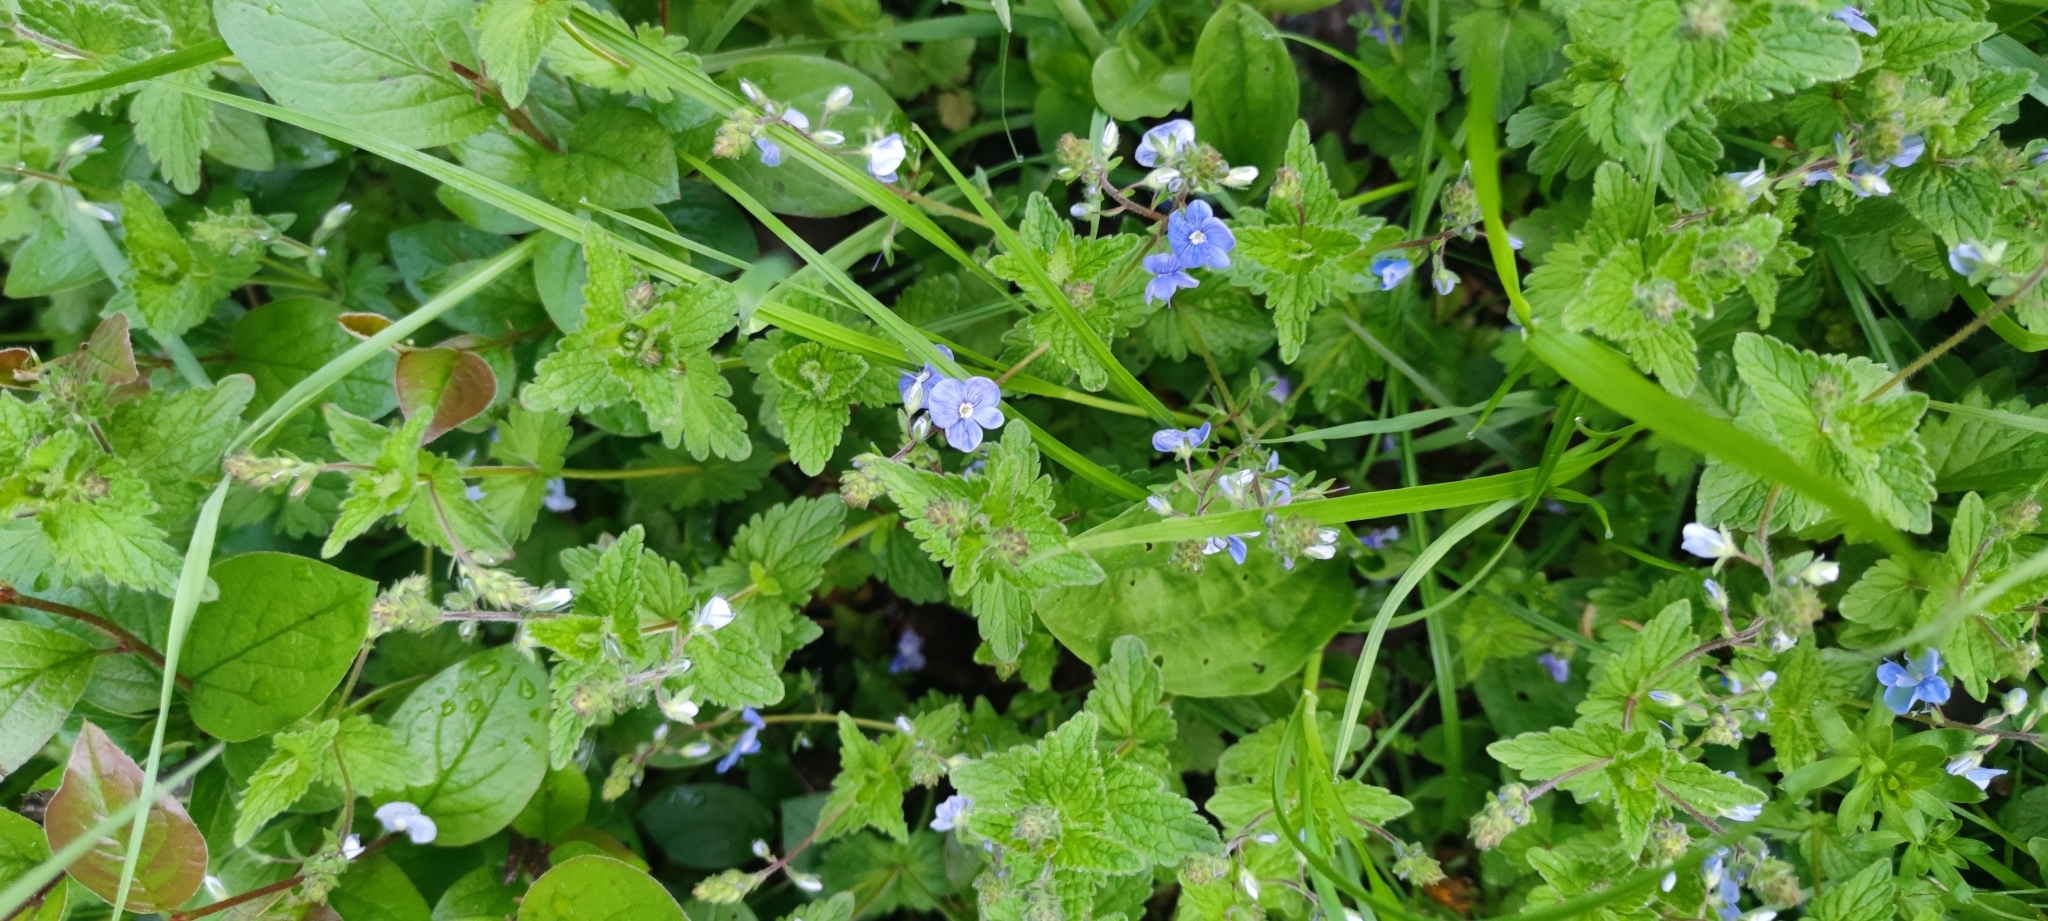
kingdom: Plantae
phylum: Tracheophyta
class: Magnoliopsida
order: Lamiales
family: Plantaginaceae
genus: Veronica
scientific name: Veronica chamaedrys
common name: Germander speedwell
